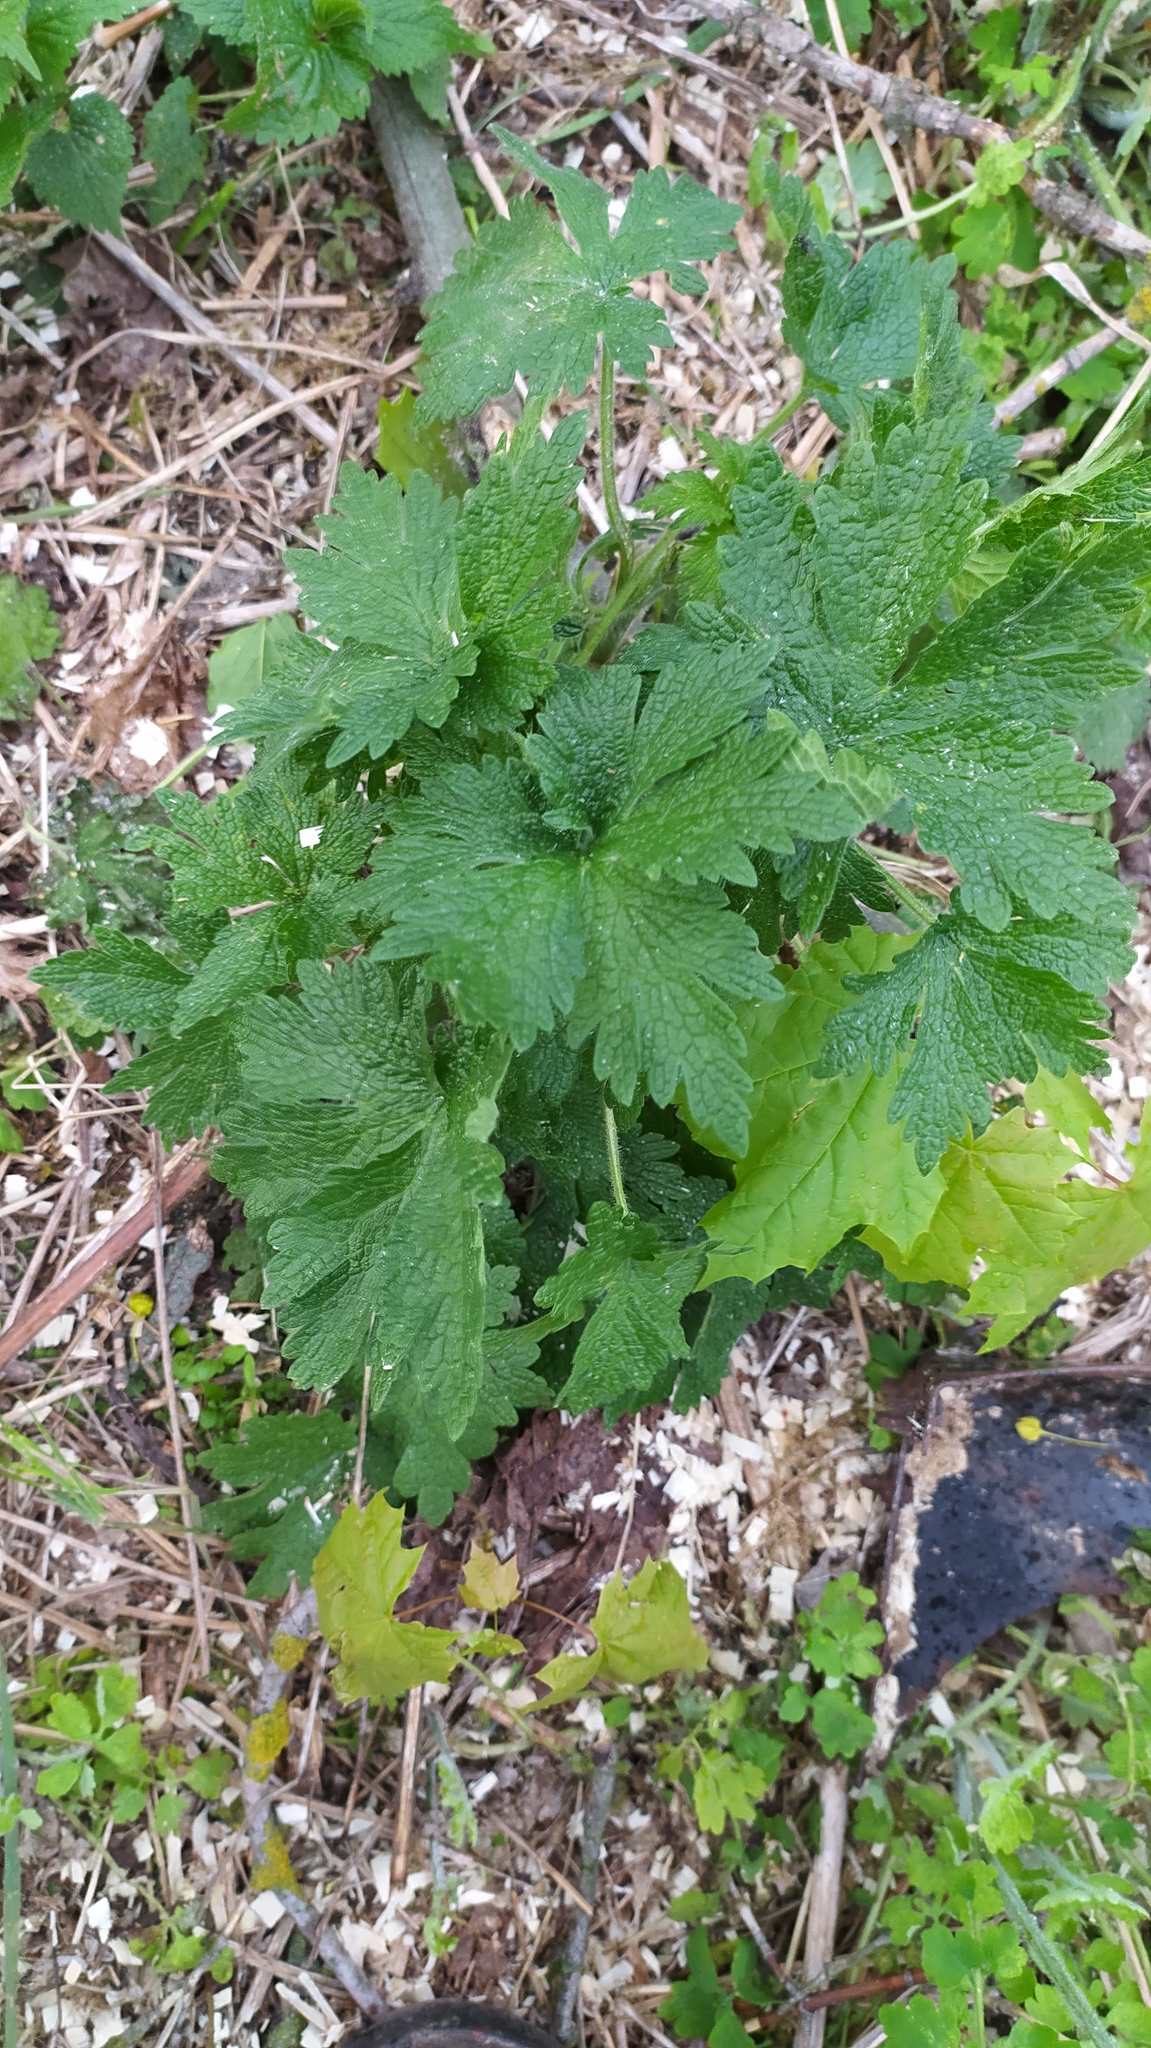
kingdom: Plantae
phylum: Tracheophyta
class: Magnoliopsida
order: Lamiales
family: Lamiaceae
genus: Leonurus
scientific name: Leonurus quinquelobatus
